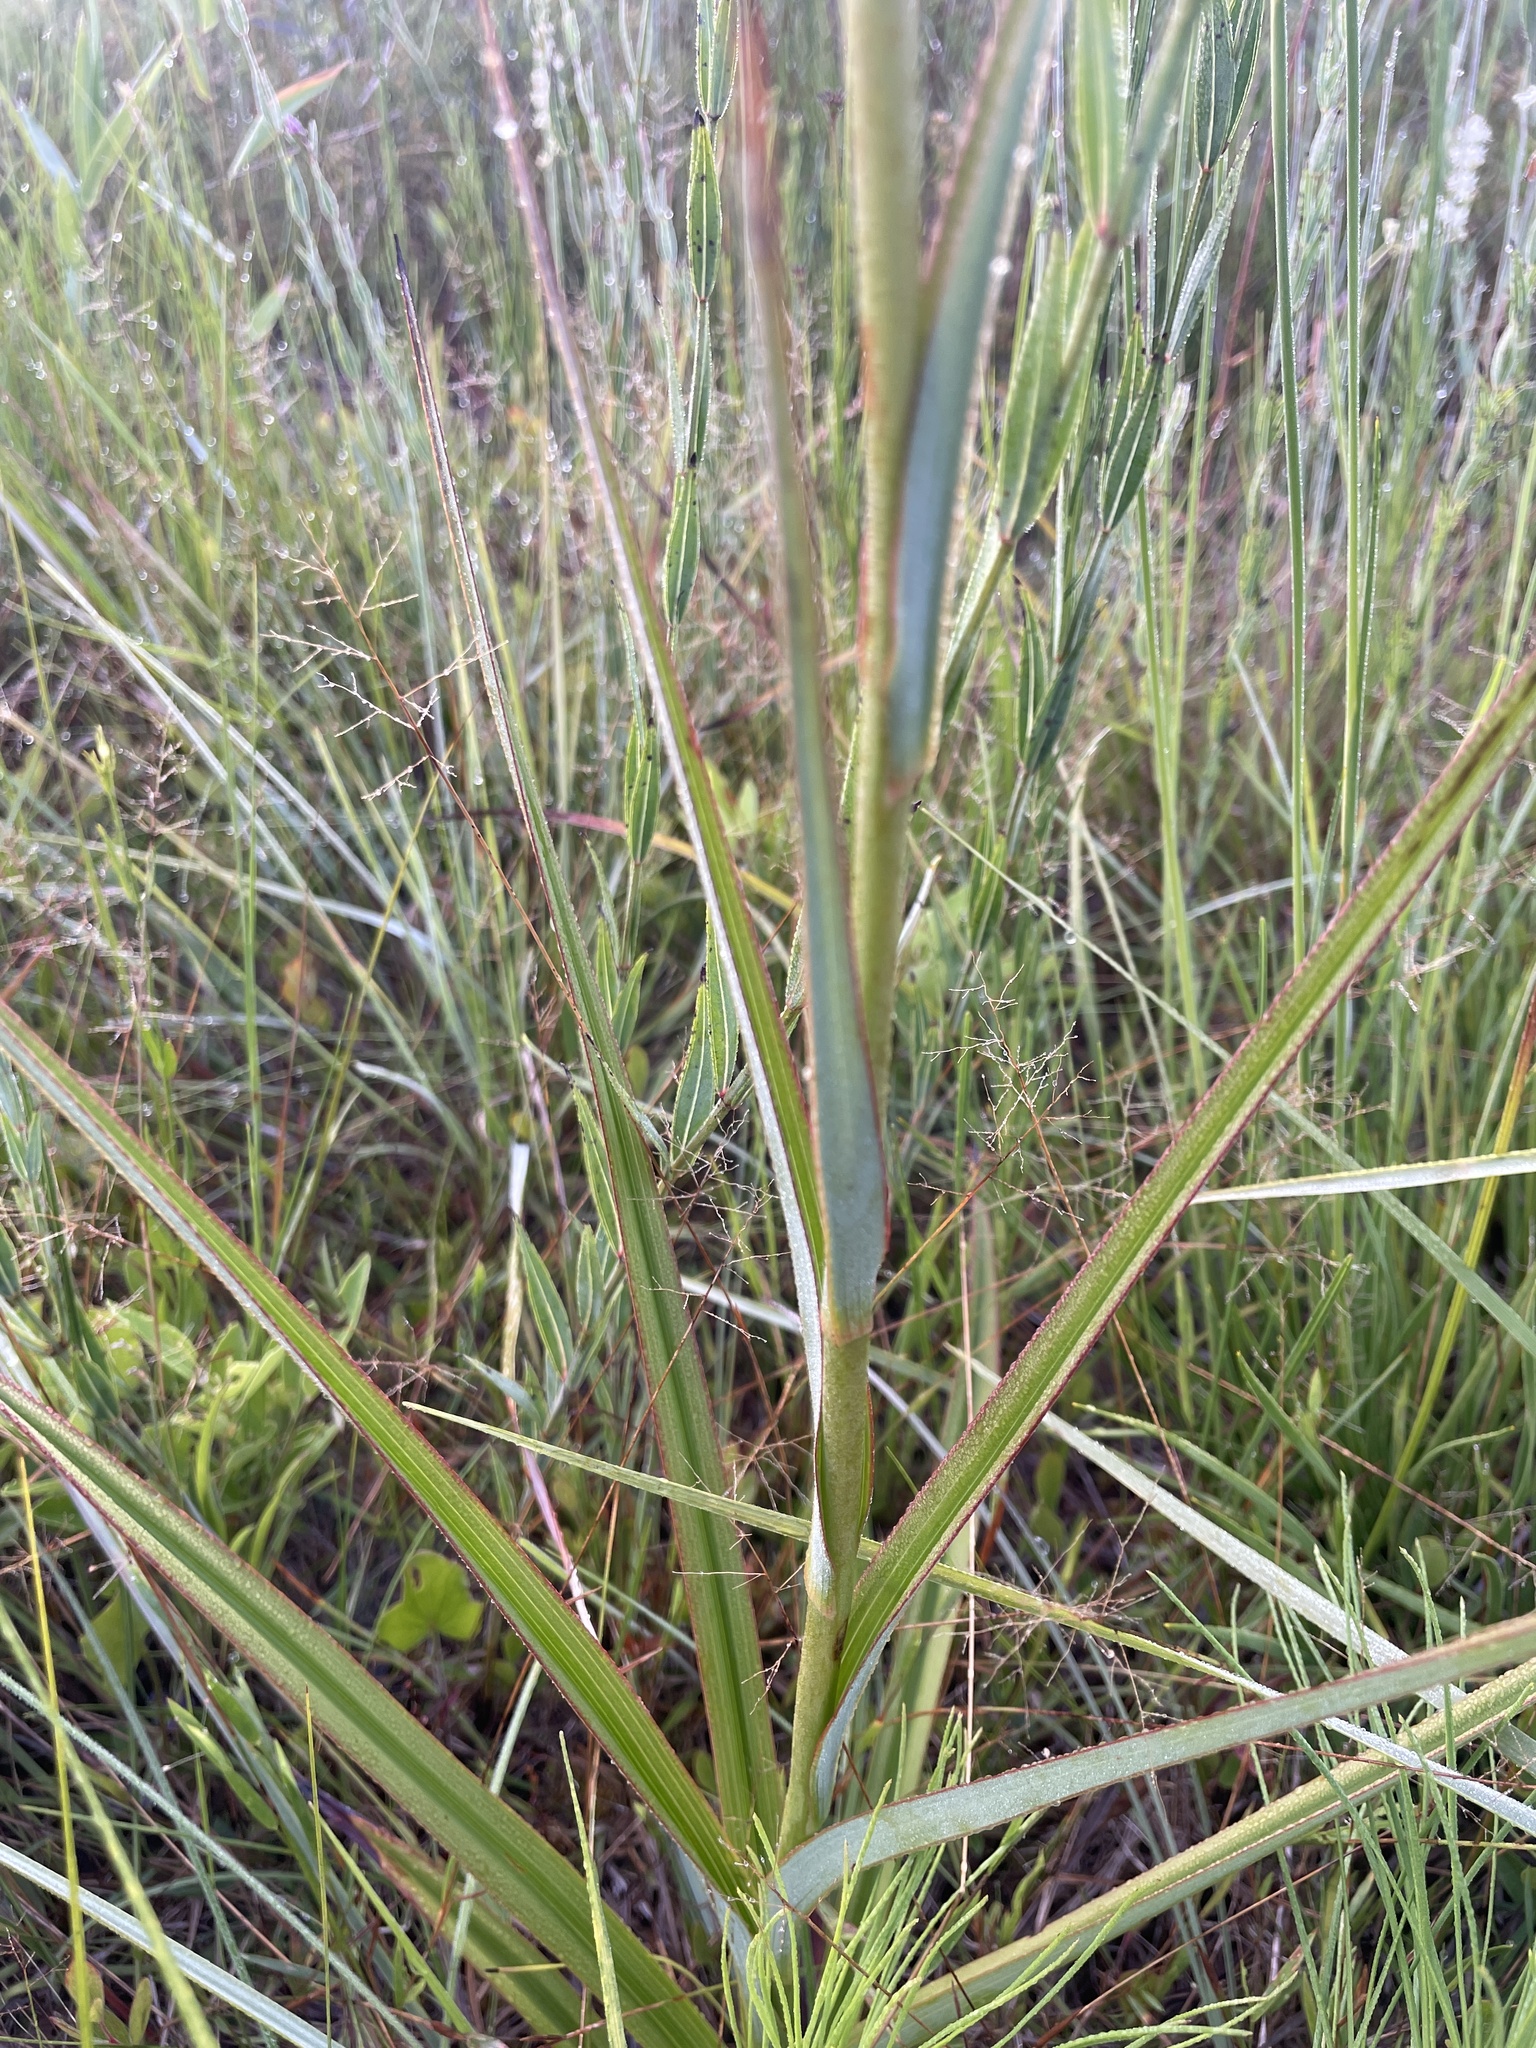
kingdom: Plantae
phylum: Tracheophyta
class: Liliopsida
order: Liliales
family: Melanthiaceae
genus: Zigadenus
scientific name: Zigadenus glaberrimus
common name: Sandbog death camas
